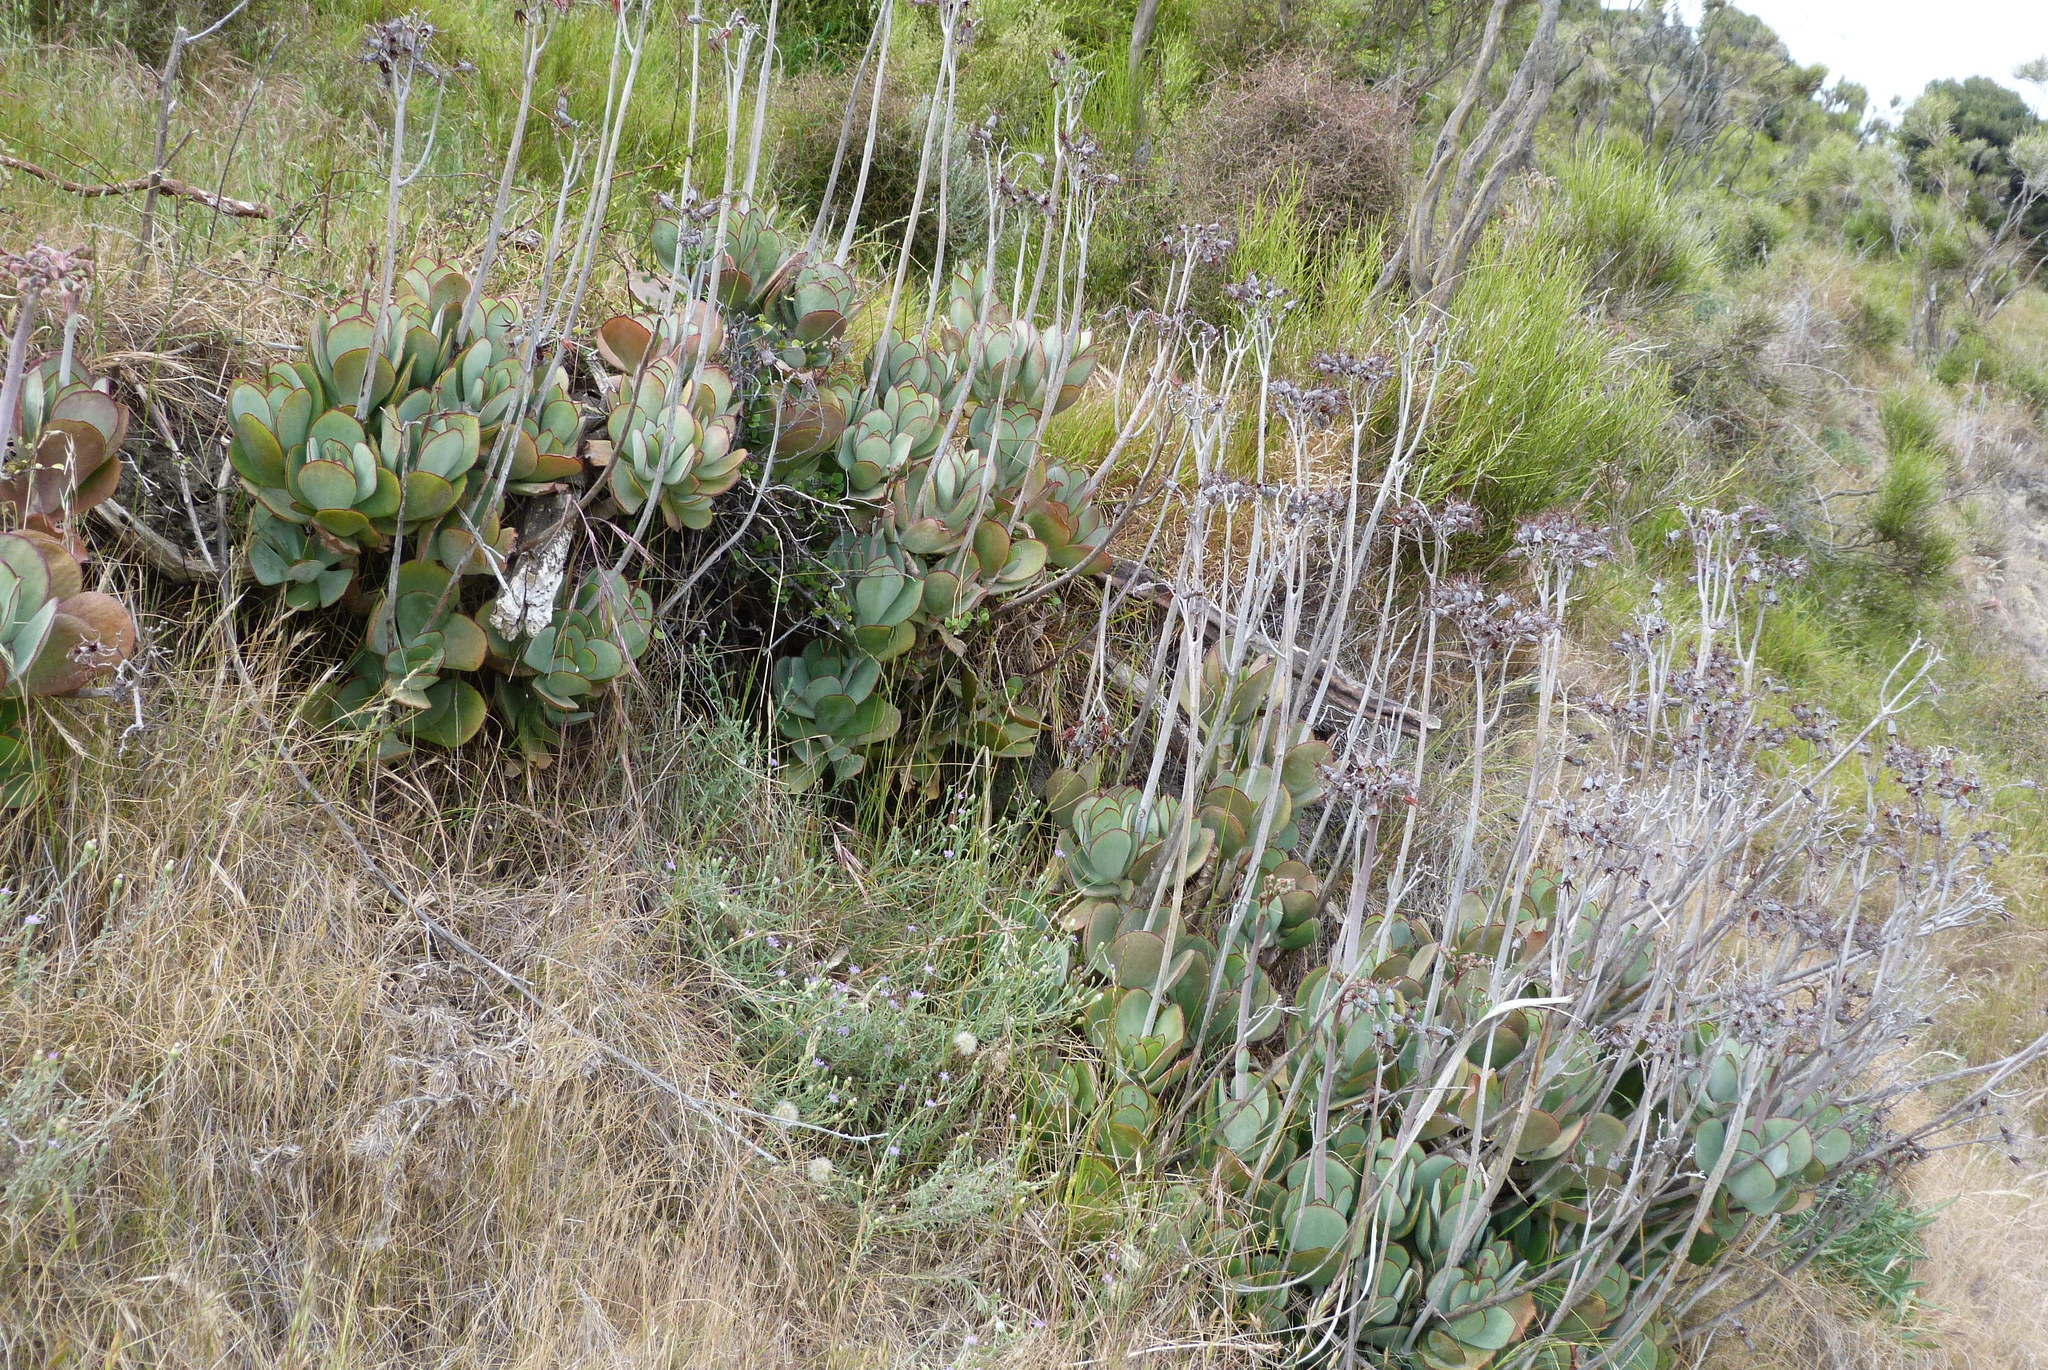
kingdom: Plantae
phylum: Tracheophyta
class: Magnoliopsida
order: Saxifragales
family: Crassulaceae
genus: Cotyledon
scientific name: Cotyledon orbiculata
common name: Pig's ear
